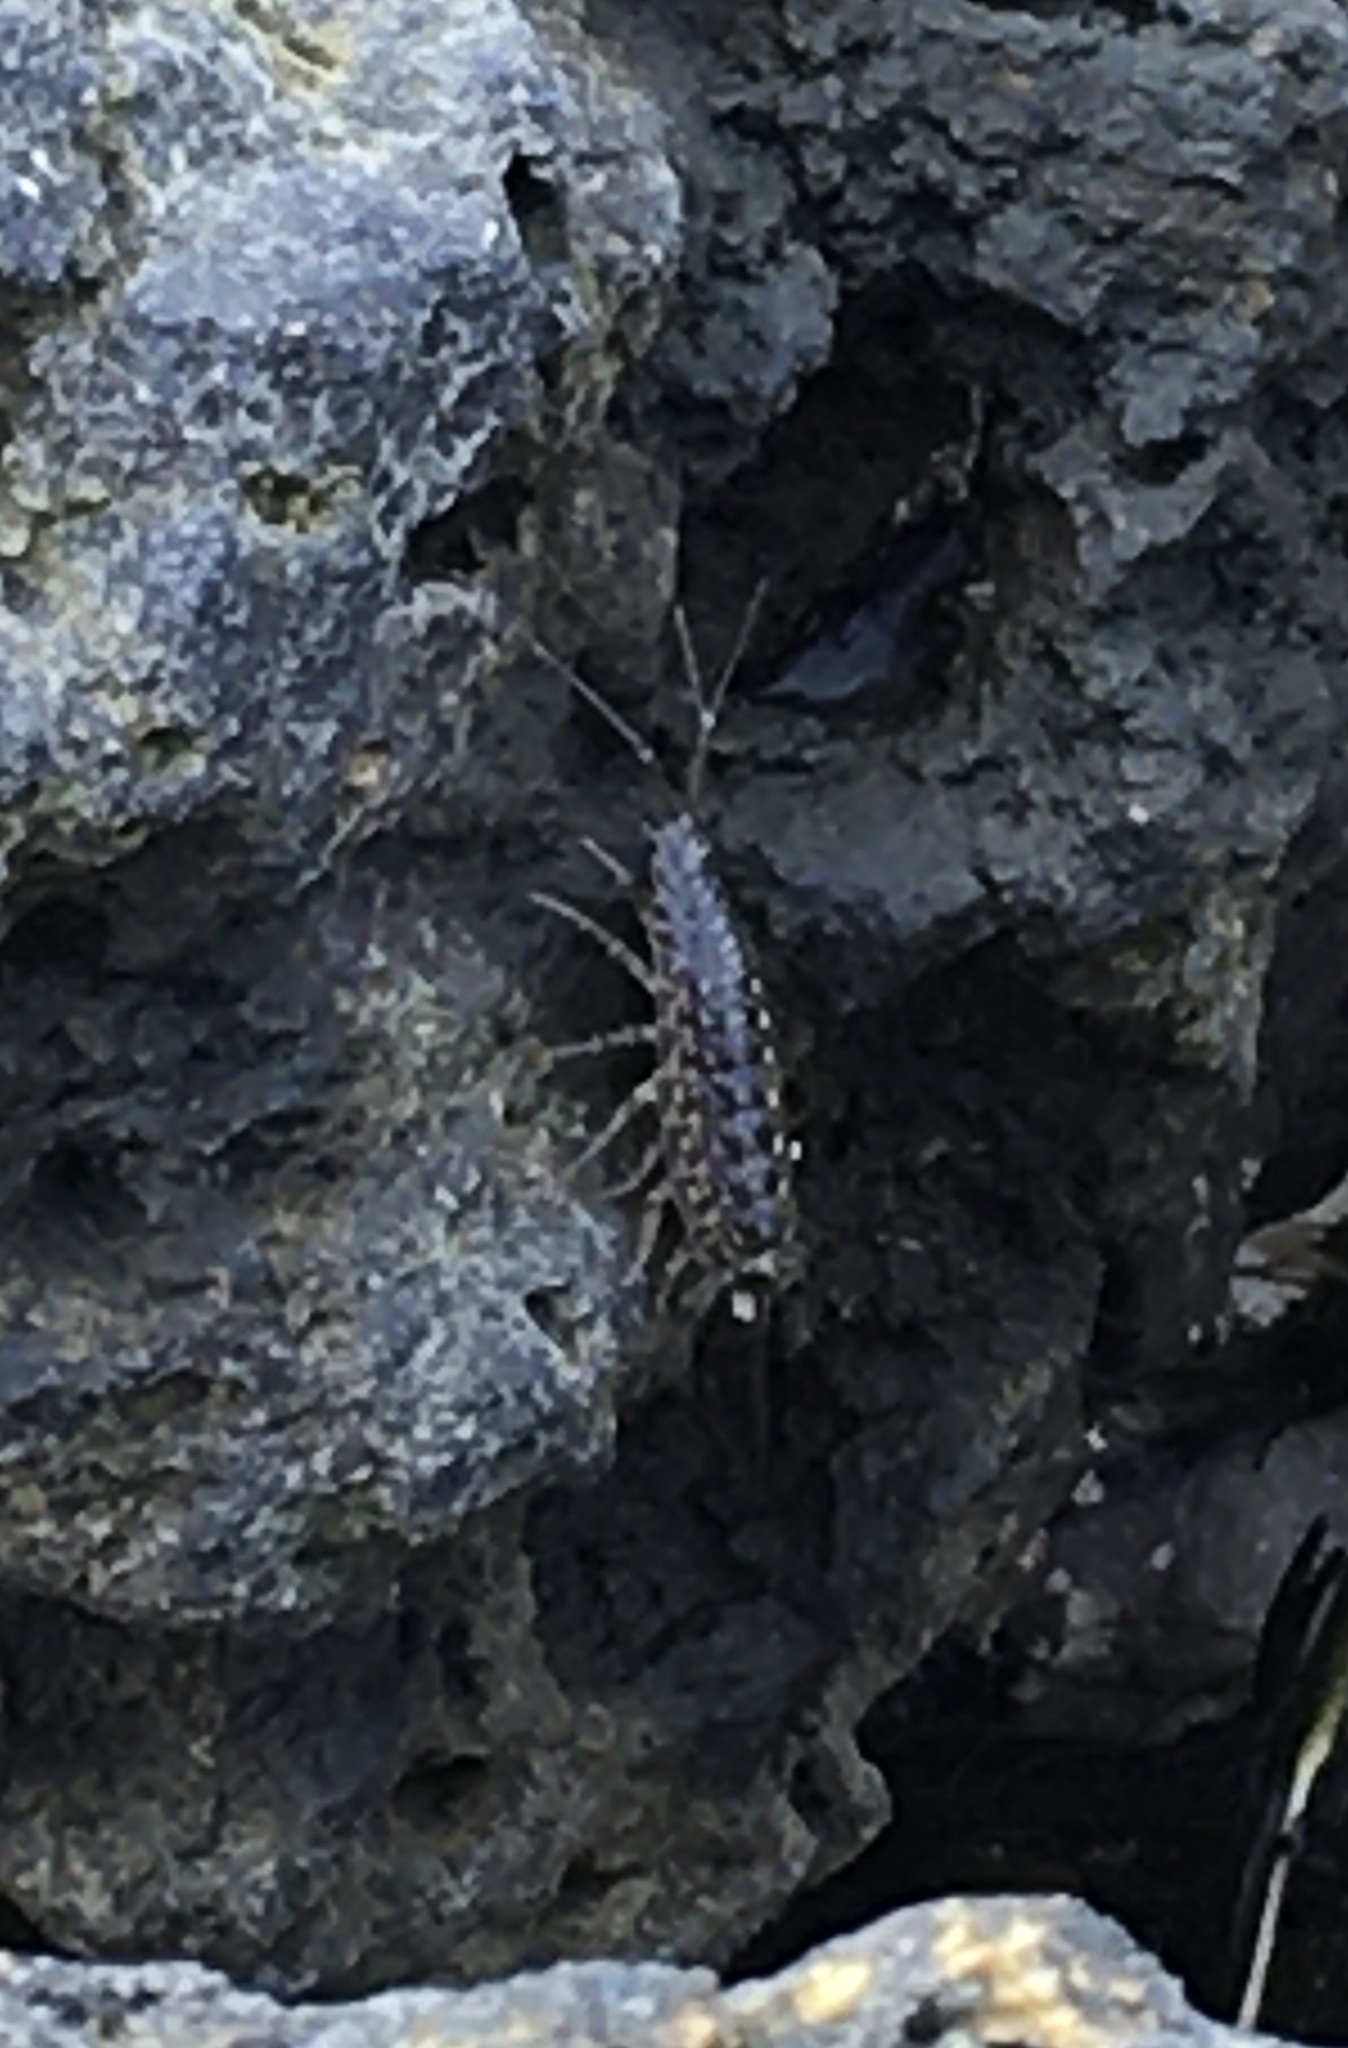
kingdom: Animalia
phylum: Arthropoda
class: Malacostraca
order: Isopoda
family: Ligiidae
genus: Ligia
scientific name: Ligia exotica
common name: Wharf roach
